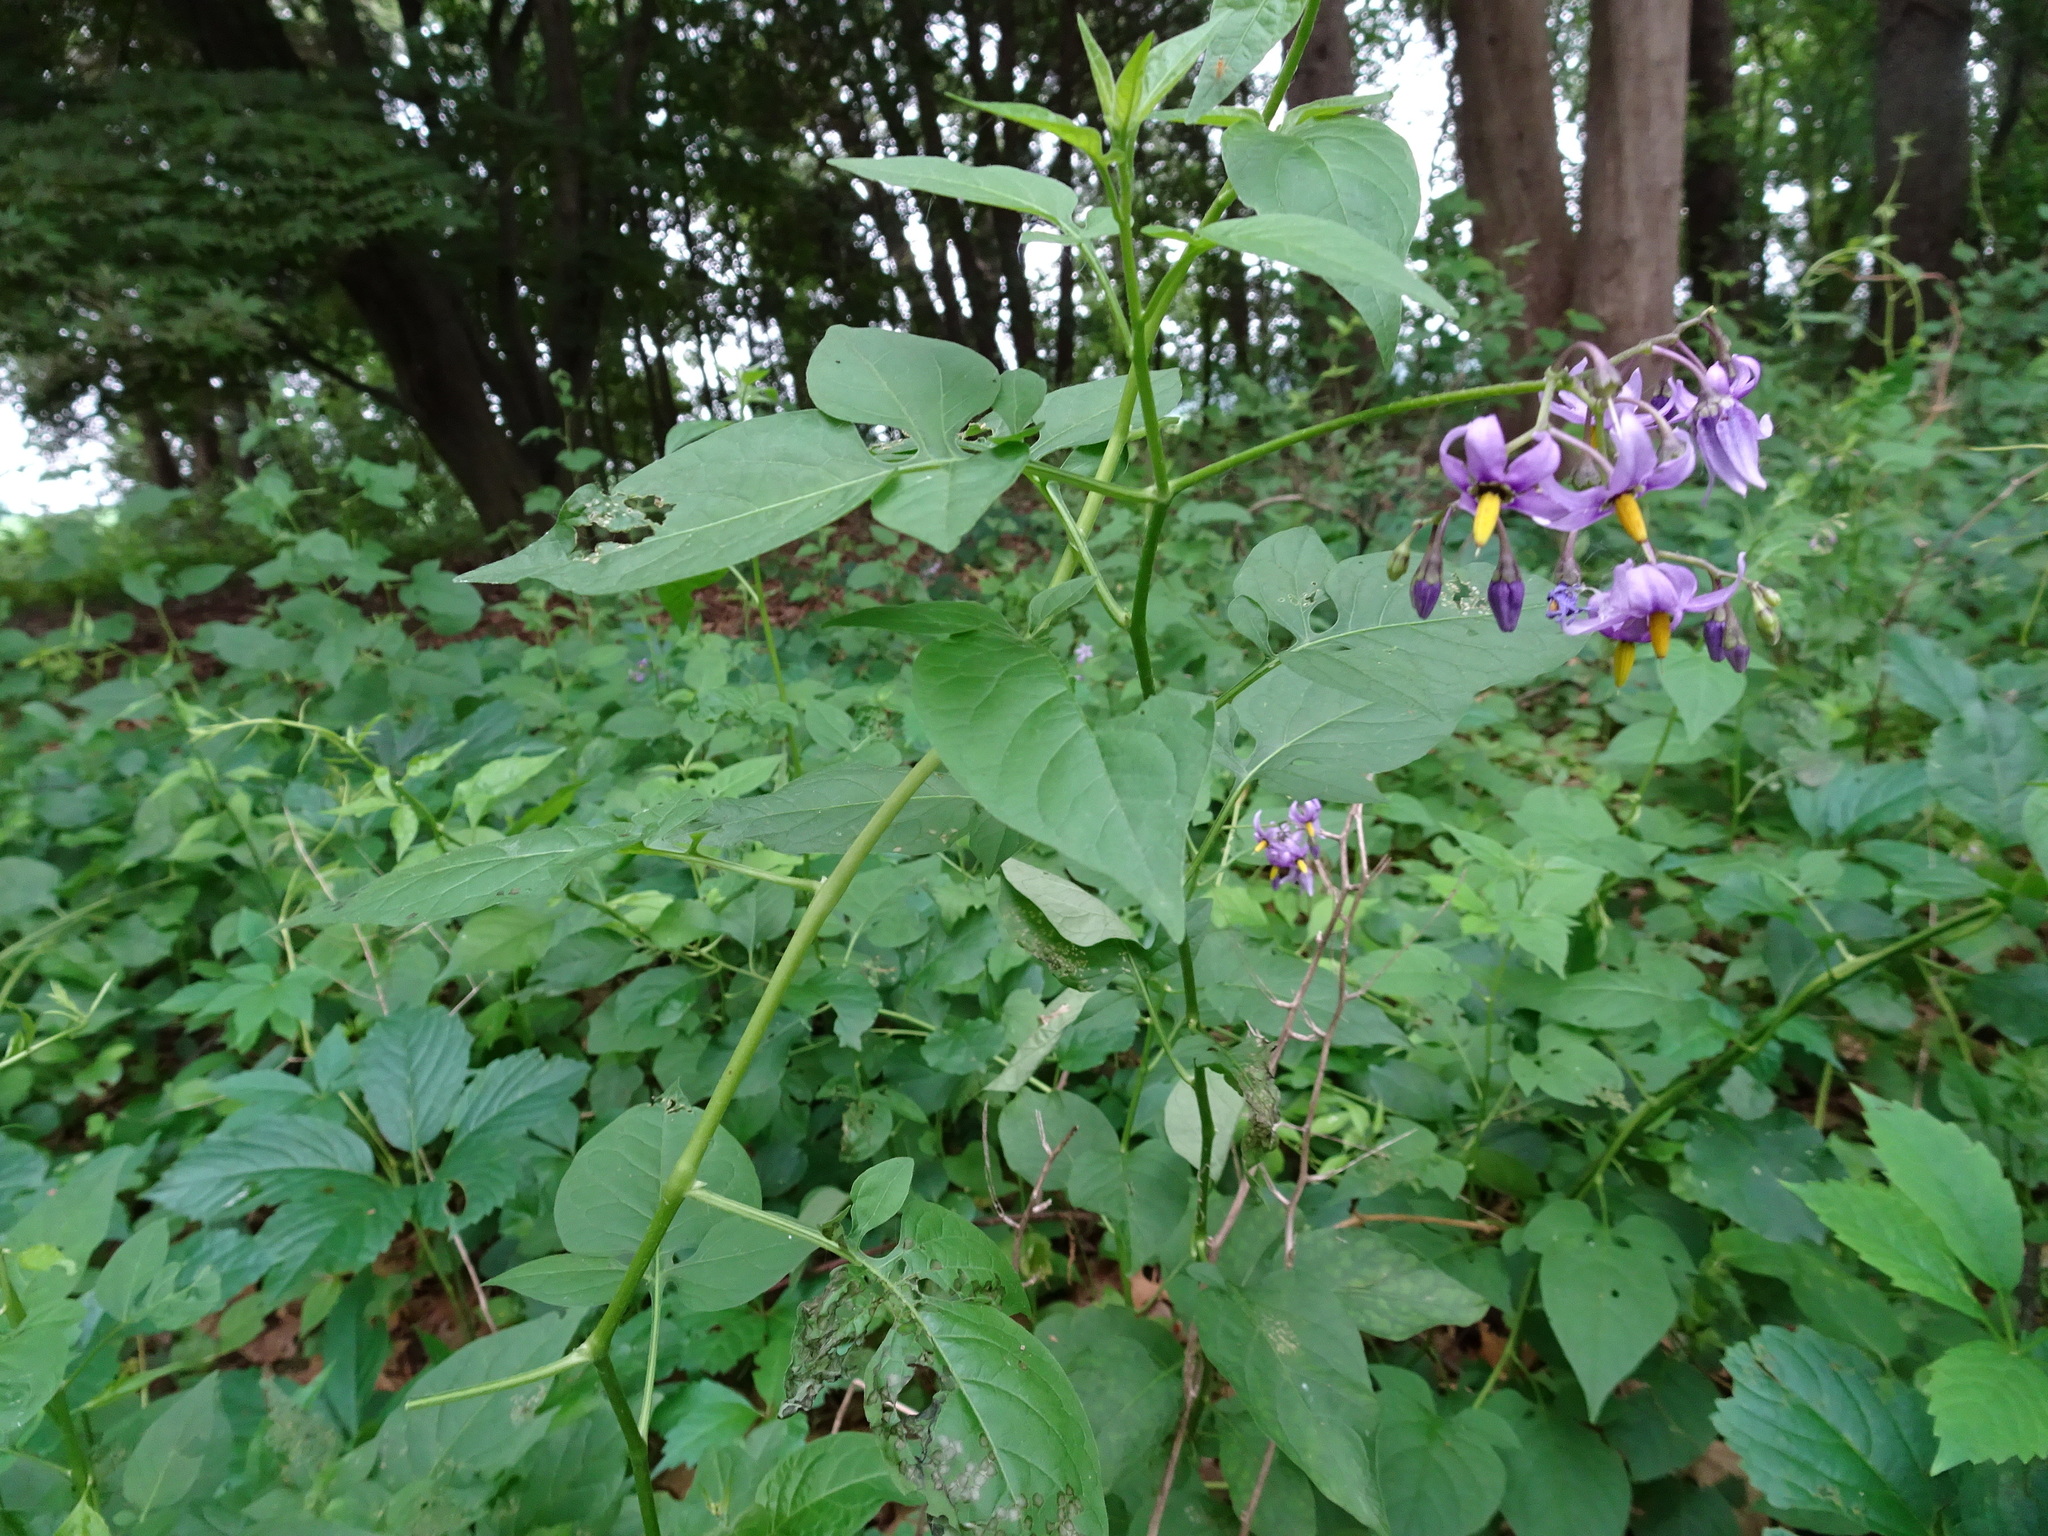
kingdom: Plantae
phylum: Tracheophyta
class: Magnoliopsida
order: Solanales
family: Solanaceae
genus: Solanum
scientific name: Solanum dulcamara
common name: Climbing nightshade
